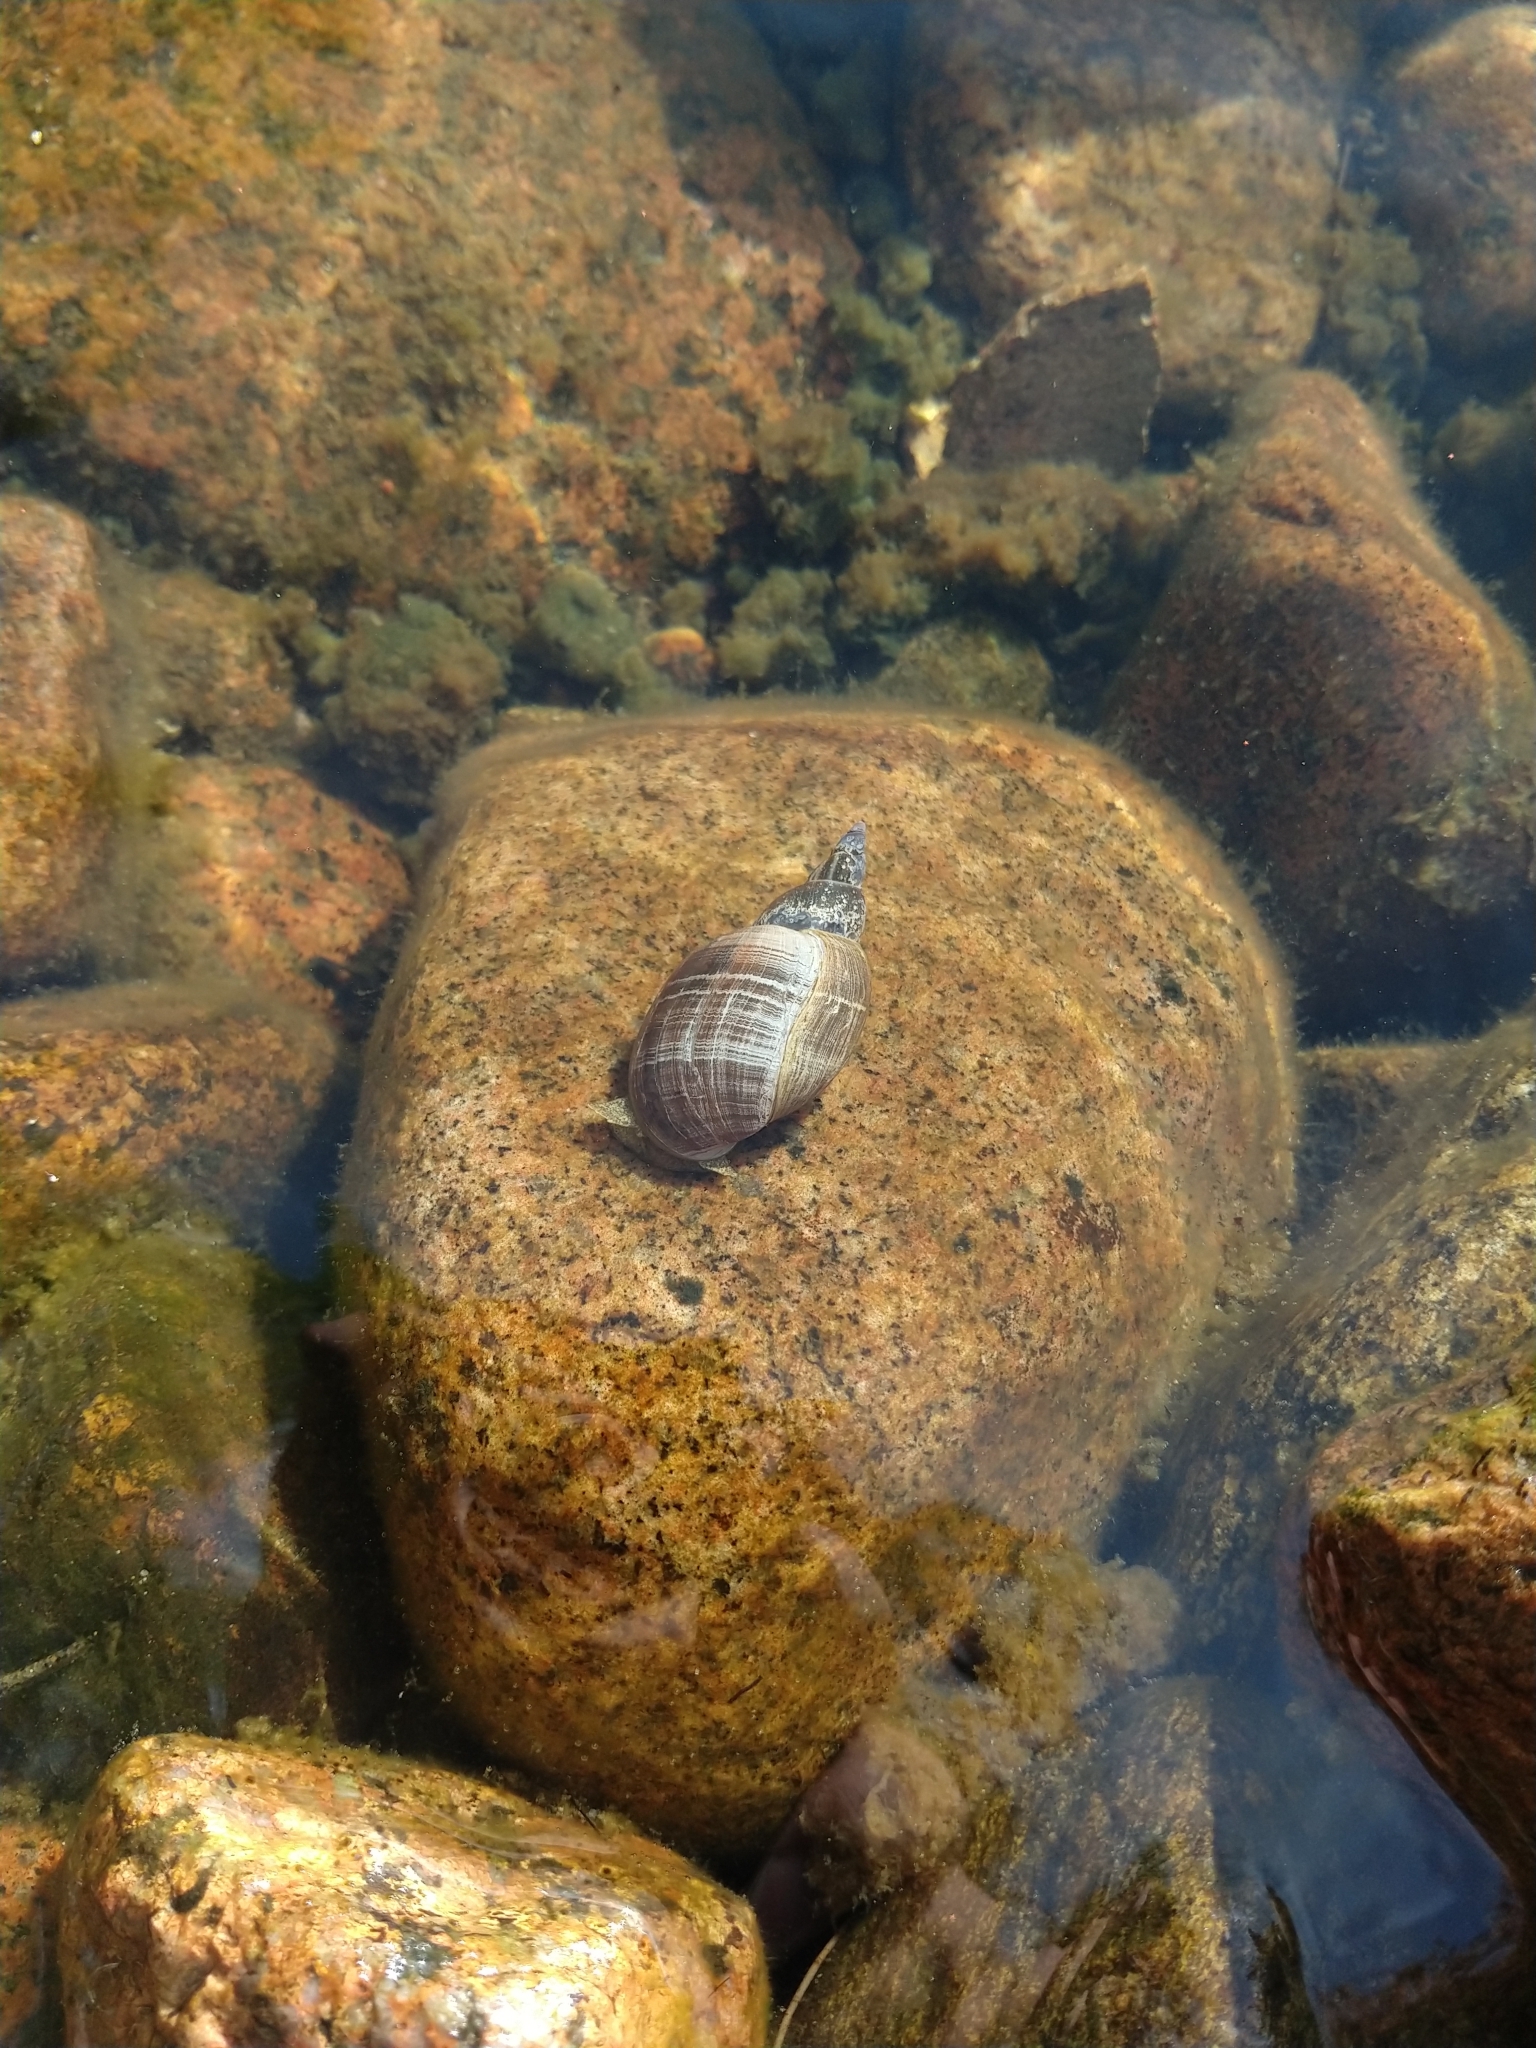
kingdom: Animalia
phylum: Mollusca
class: Gastropoda
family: Lymnaeidae
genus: Lymnaea
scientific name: Lymnaea stagnalis
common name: Great pond snail
